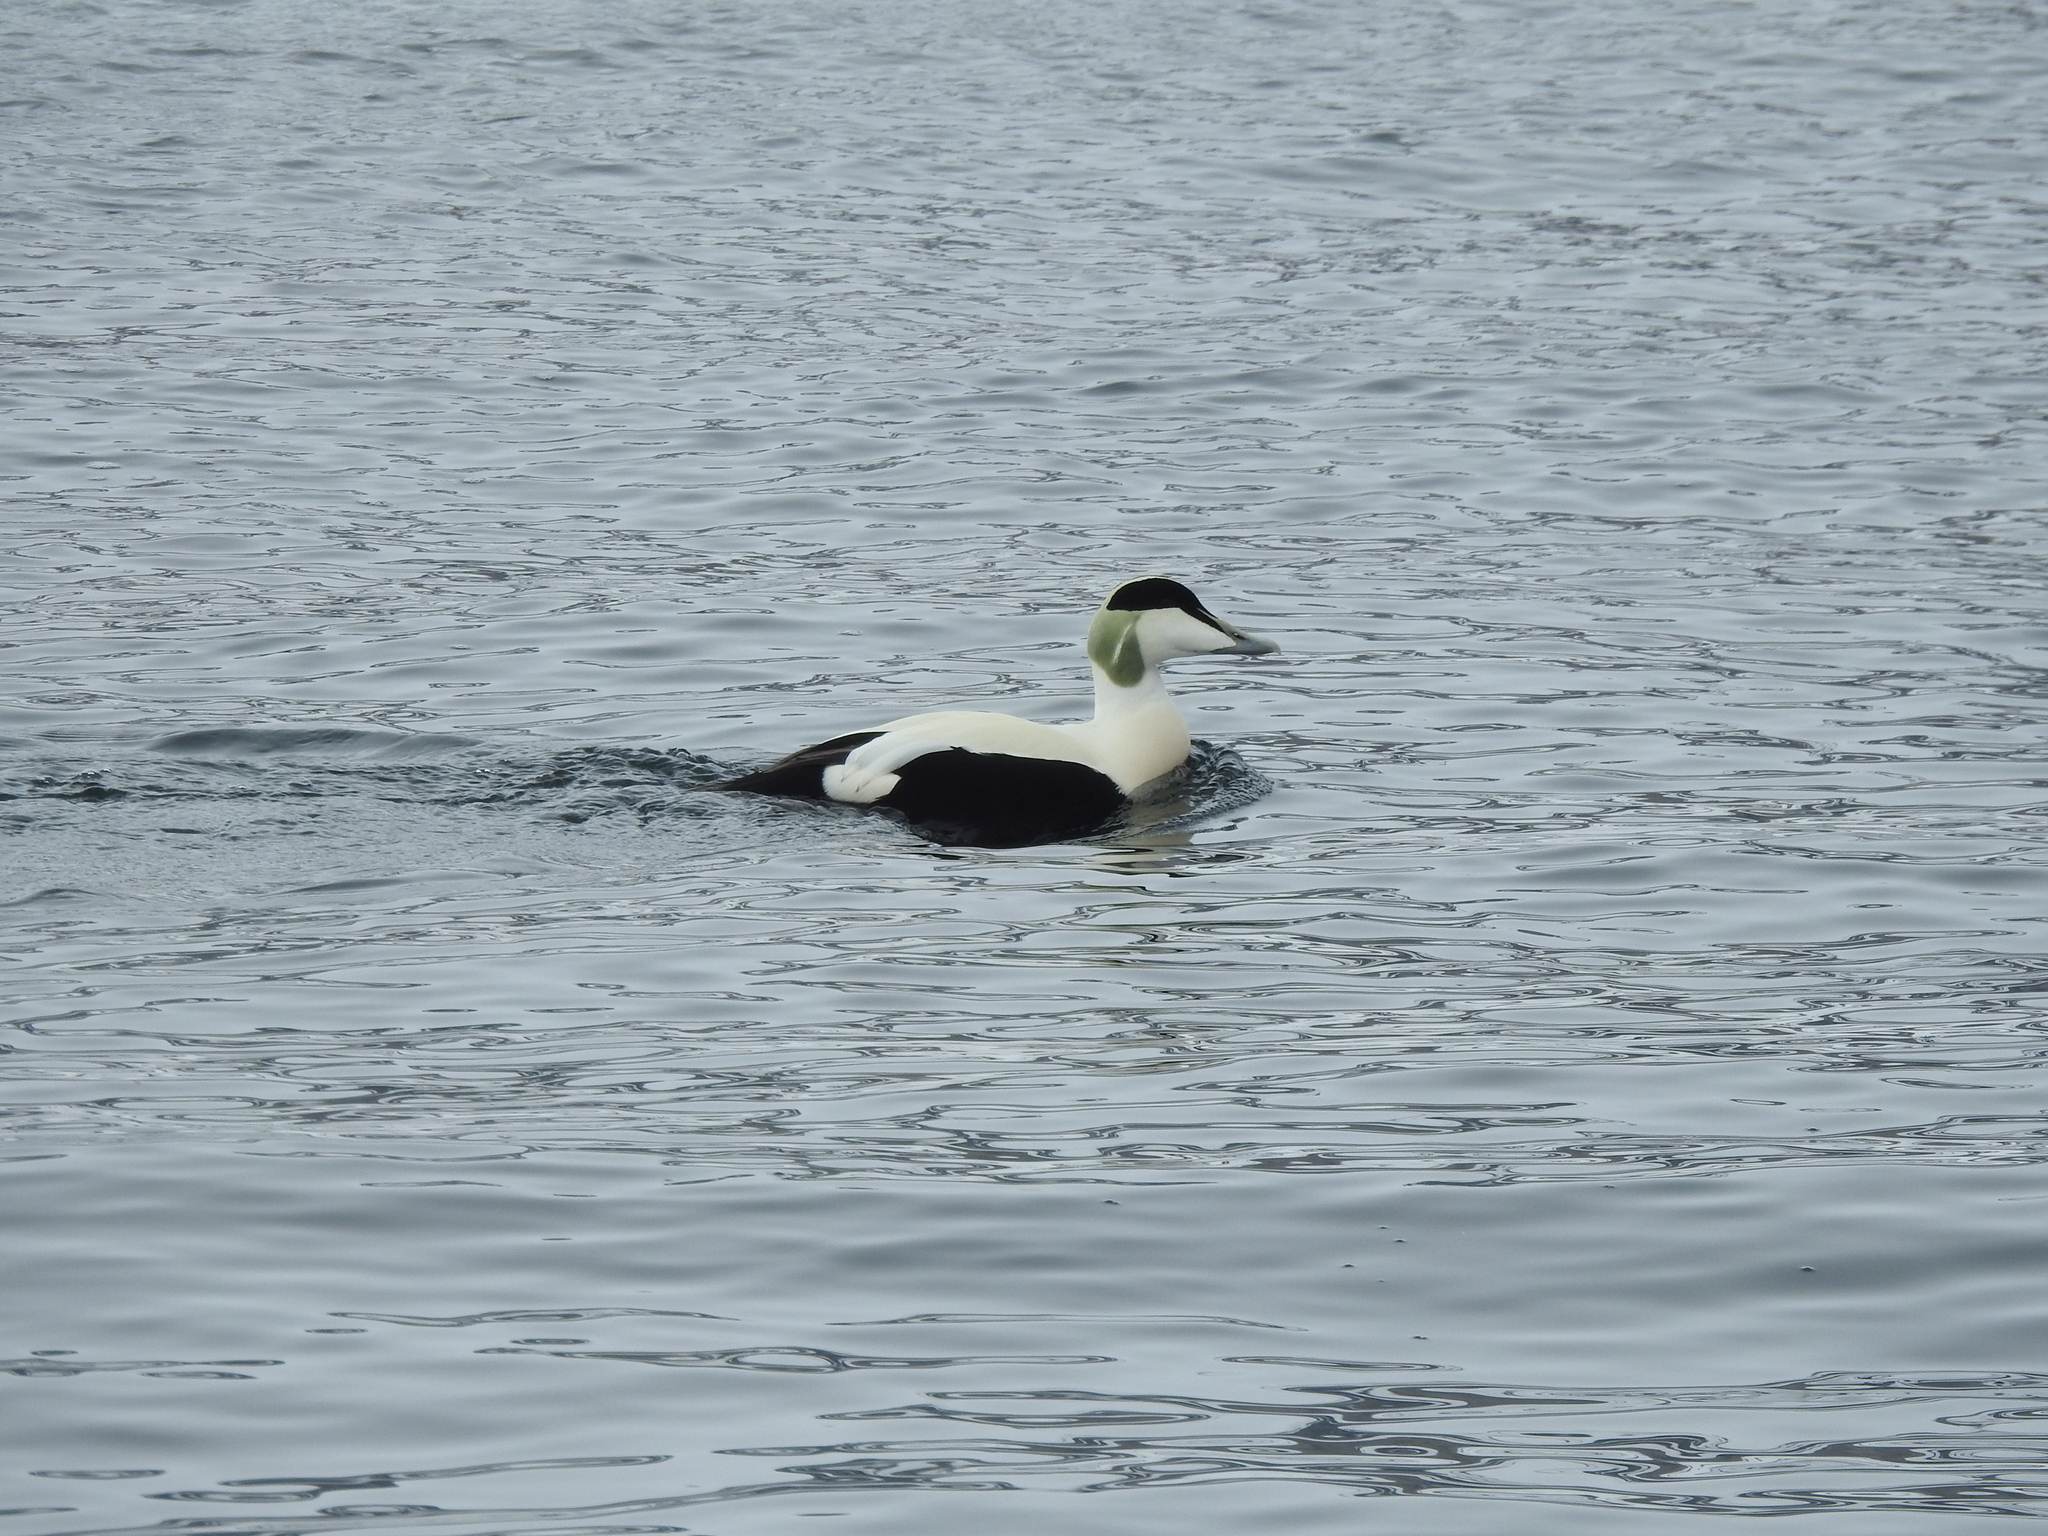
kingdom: Animalia
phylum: Chordata
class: Aves
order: Anseriformes
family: Anatidae
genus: Somateria
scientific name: Somateria mollissima
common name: Common eider
